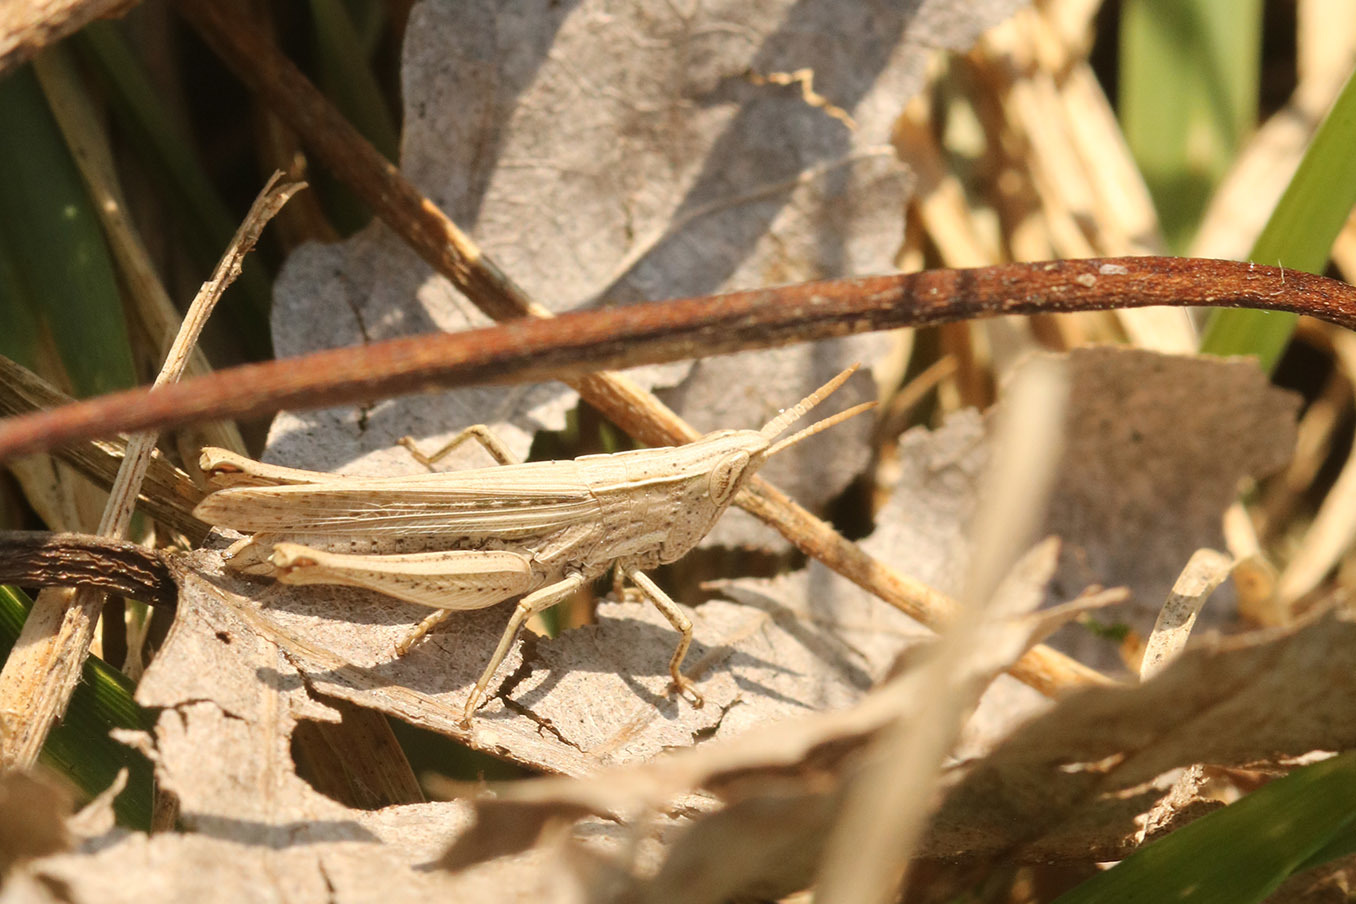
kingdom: Animalia
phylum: Arthropoda
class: Insecta
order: Orthoptera
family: Acrididae
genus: Laplatacris
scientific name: Laplatacris dispar
